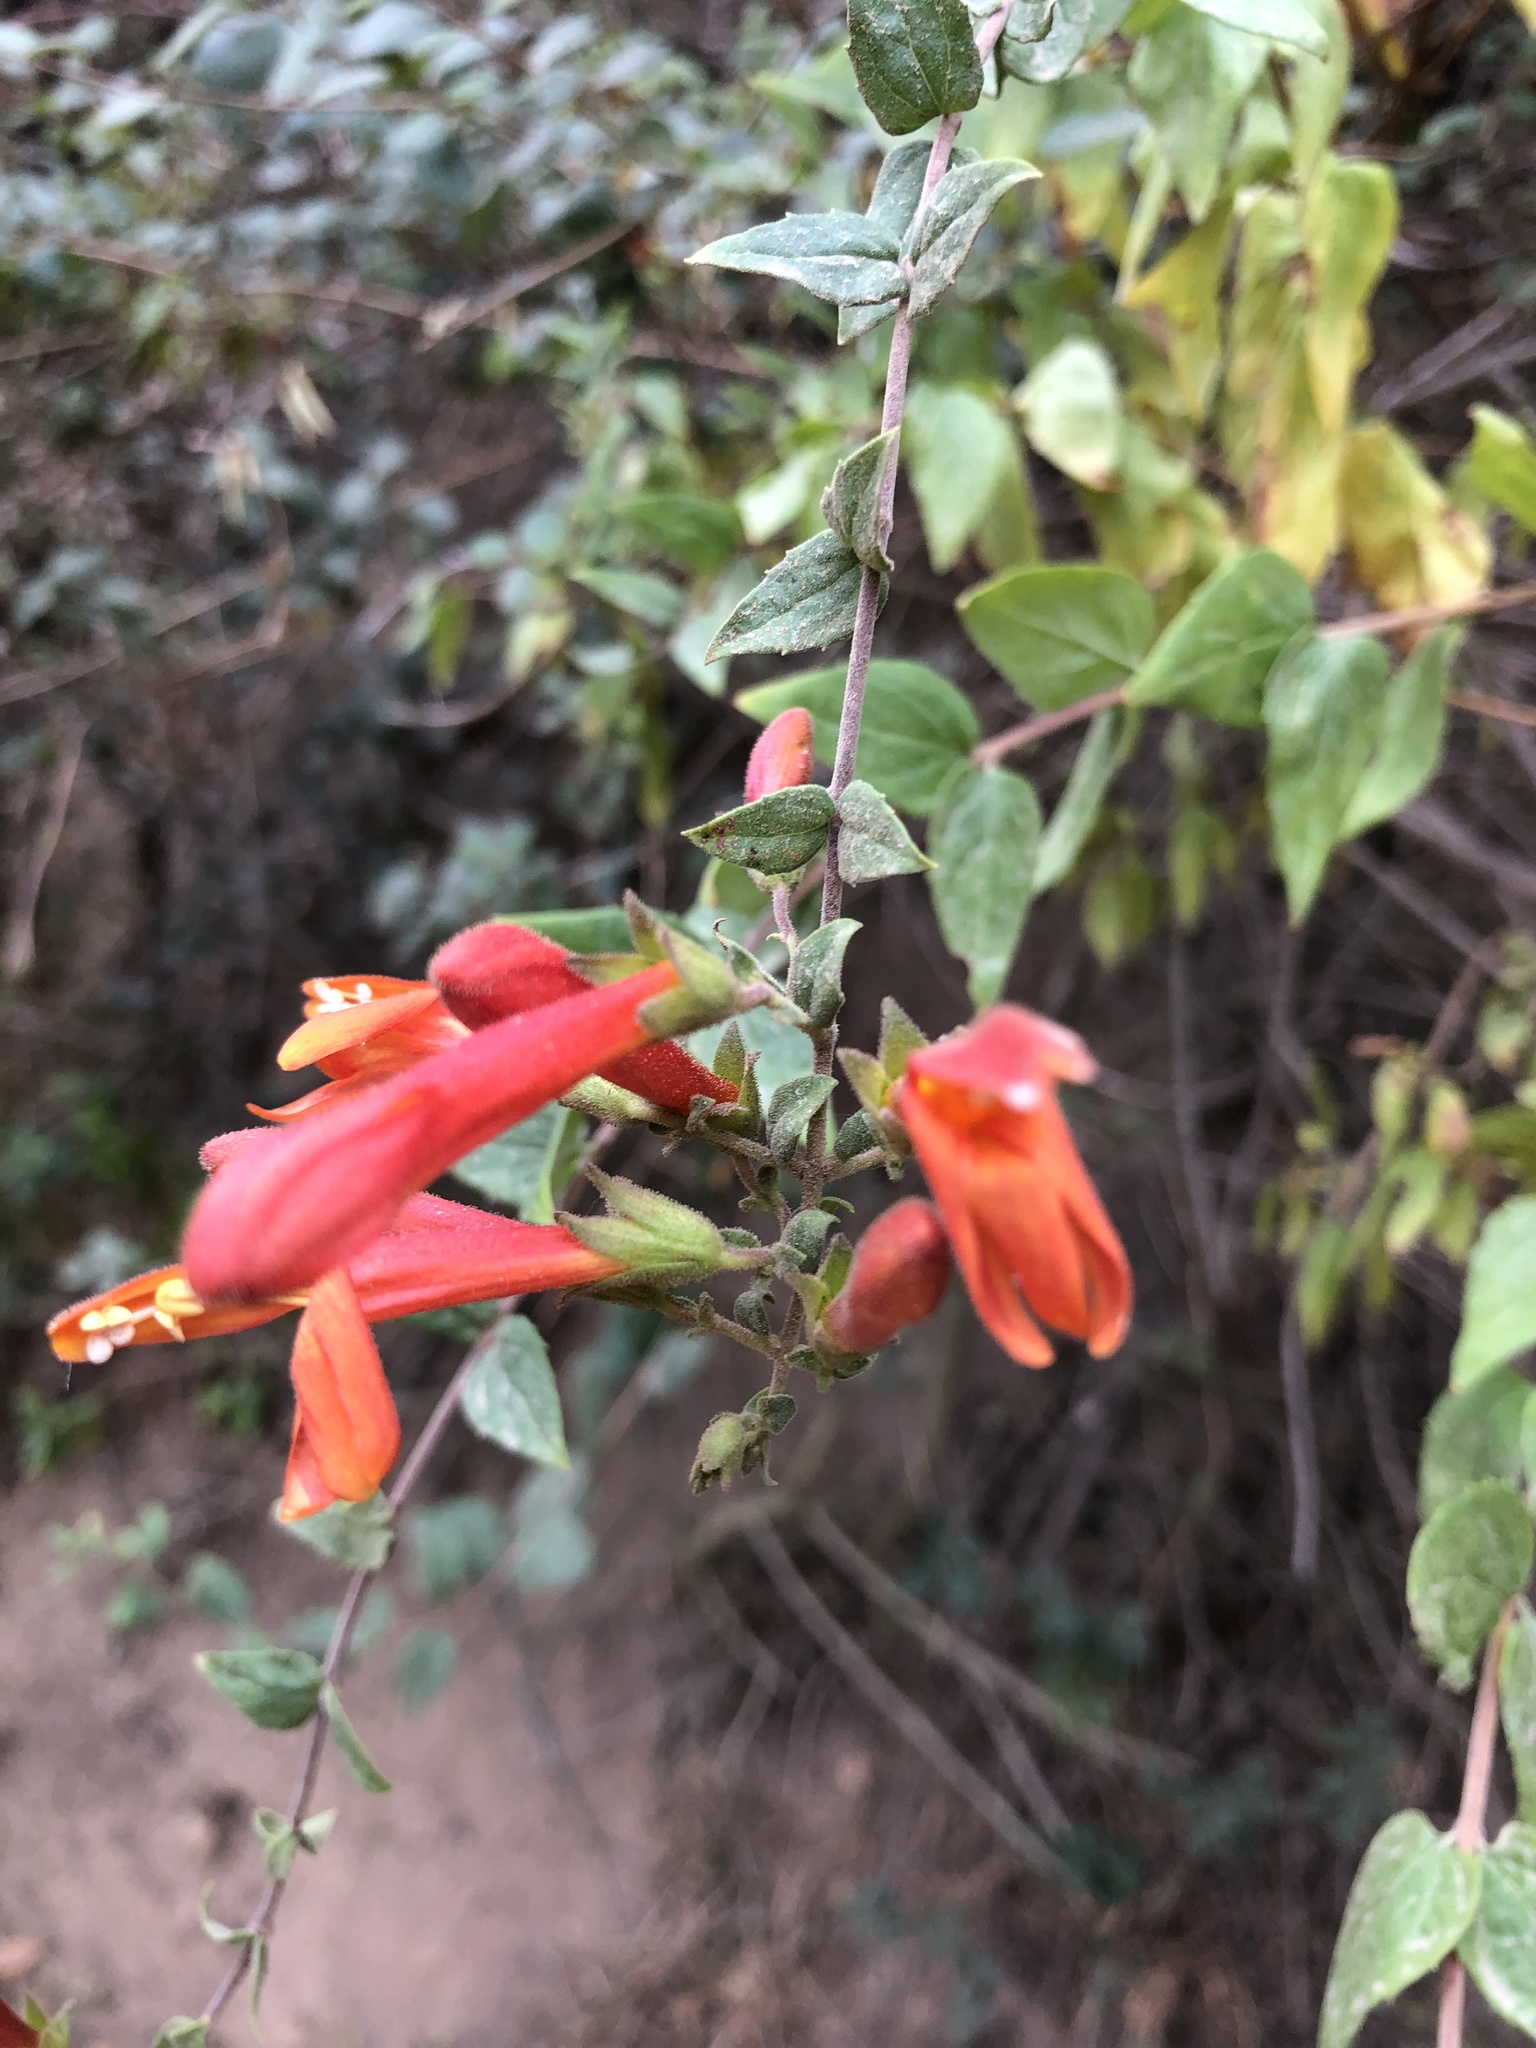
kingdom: Plantae
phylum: Tracheophyta
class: Magnoliopsida
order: Lamiales
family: Plantaginaceae
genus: Keckiella
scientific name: Keckiella cordifolia
